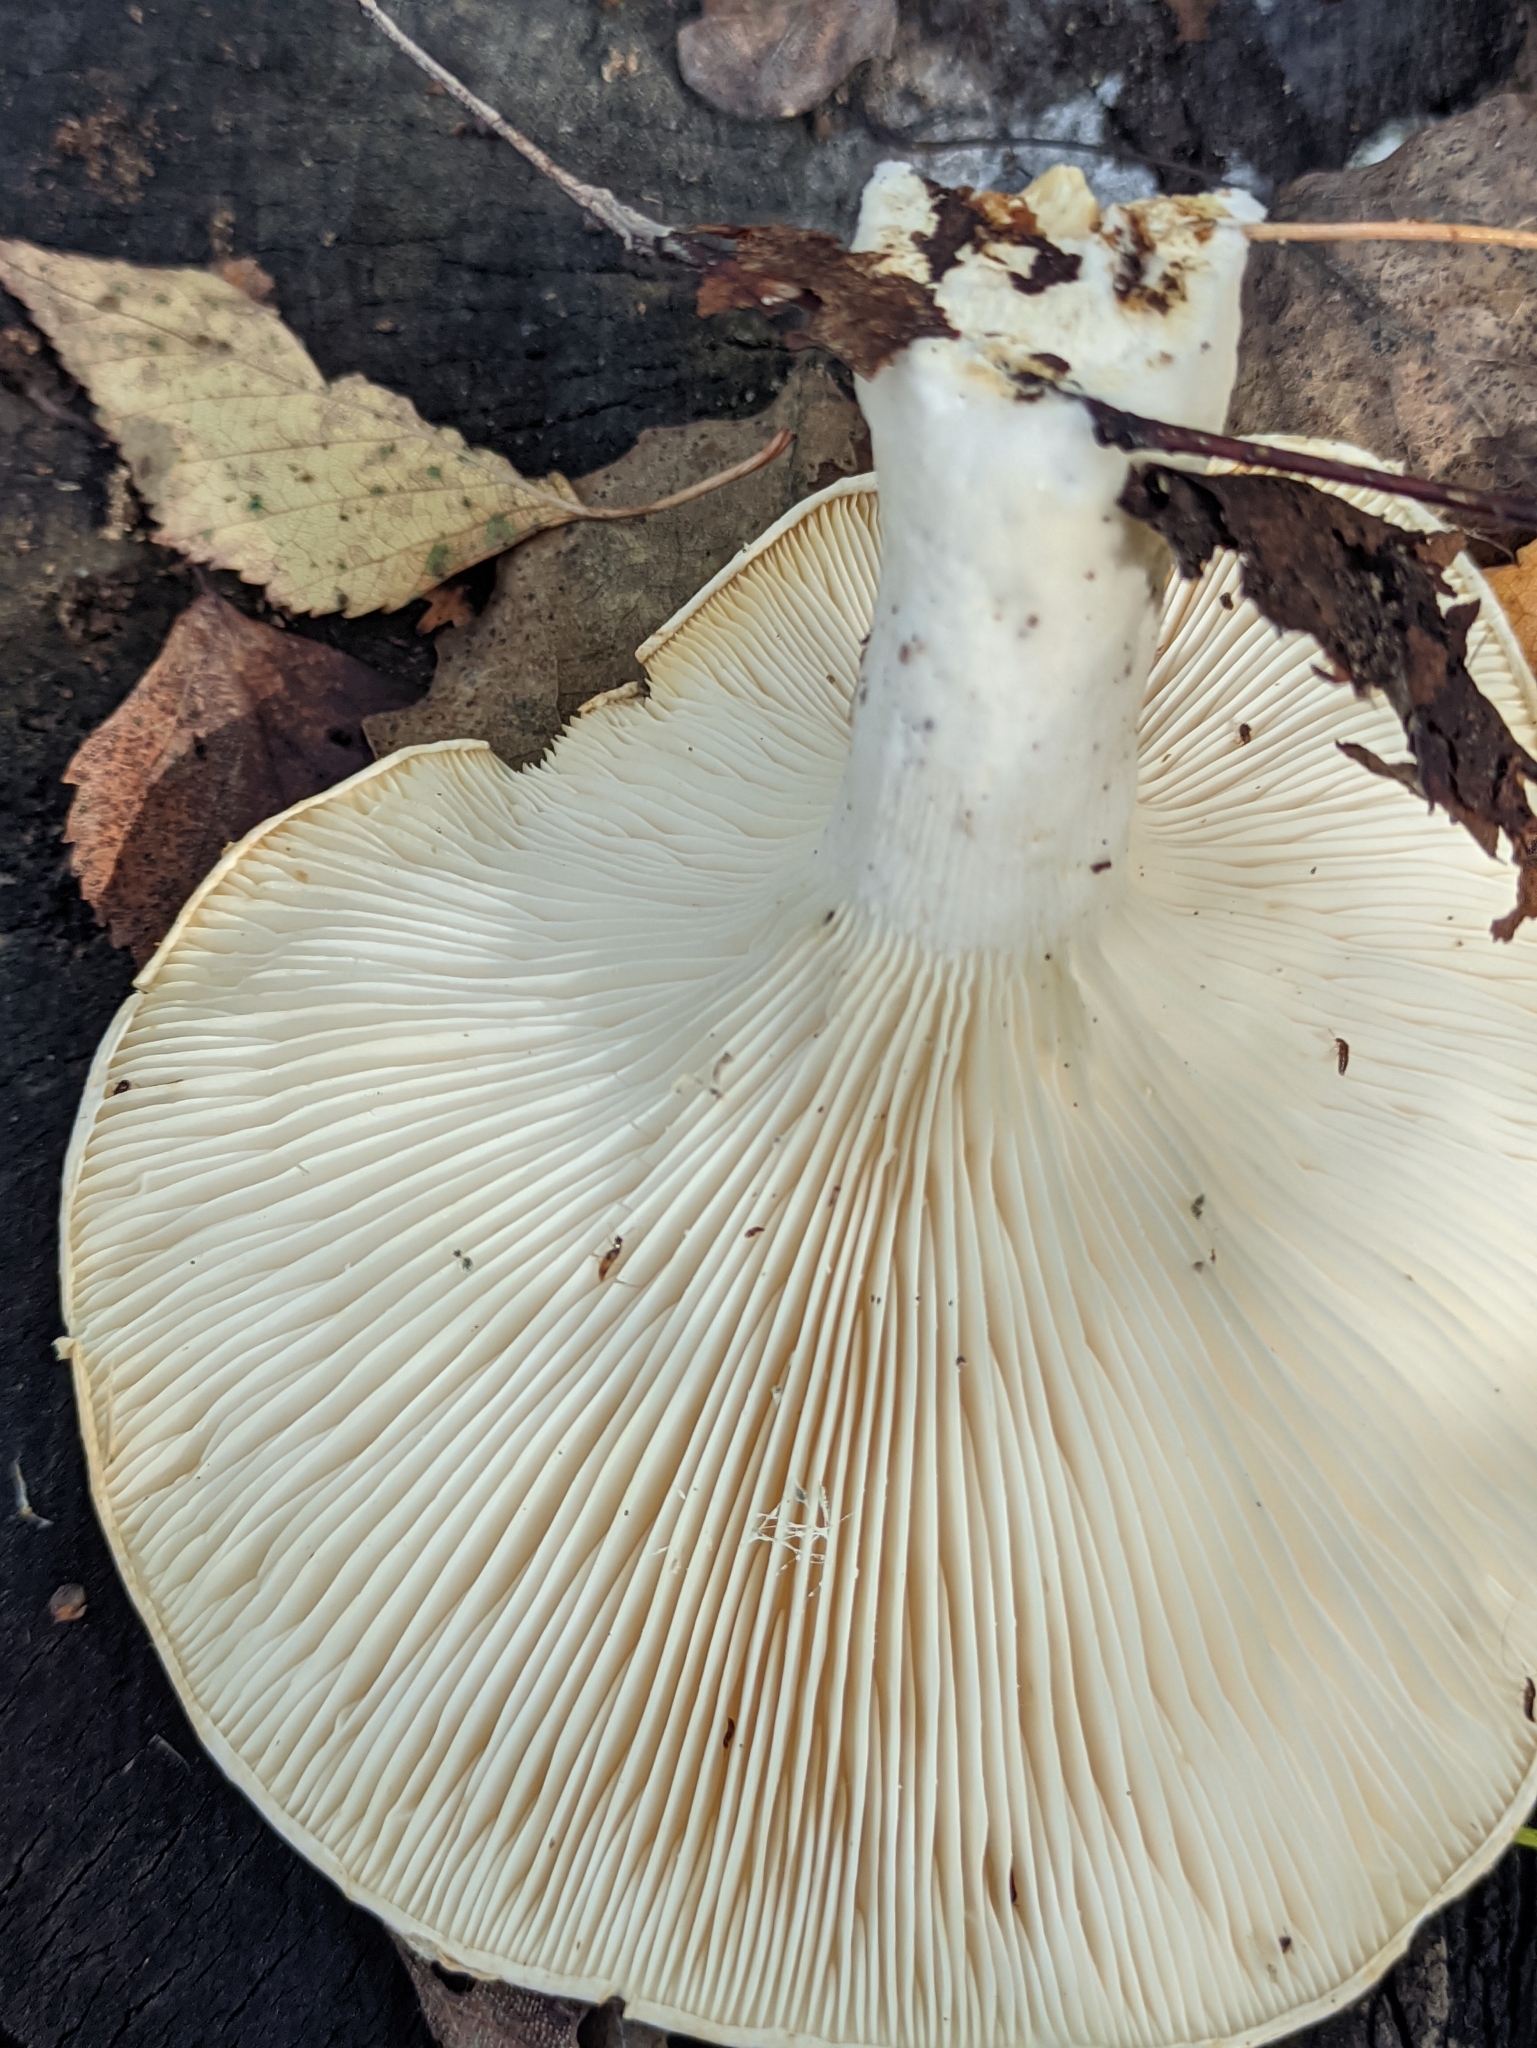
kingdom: Fungi
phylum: Basidiomycota
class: Agaricomycetes
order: Gloeophyllales
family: Gloeophyllaceae
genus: Neolentinus
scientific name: Neolentinus lepideus
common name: Scaly sawgill
